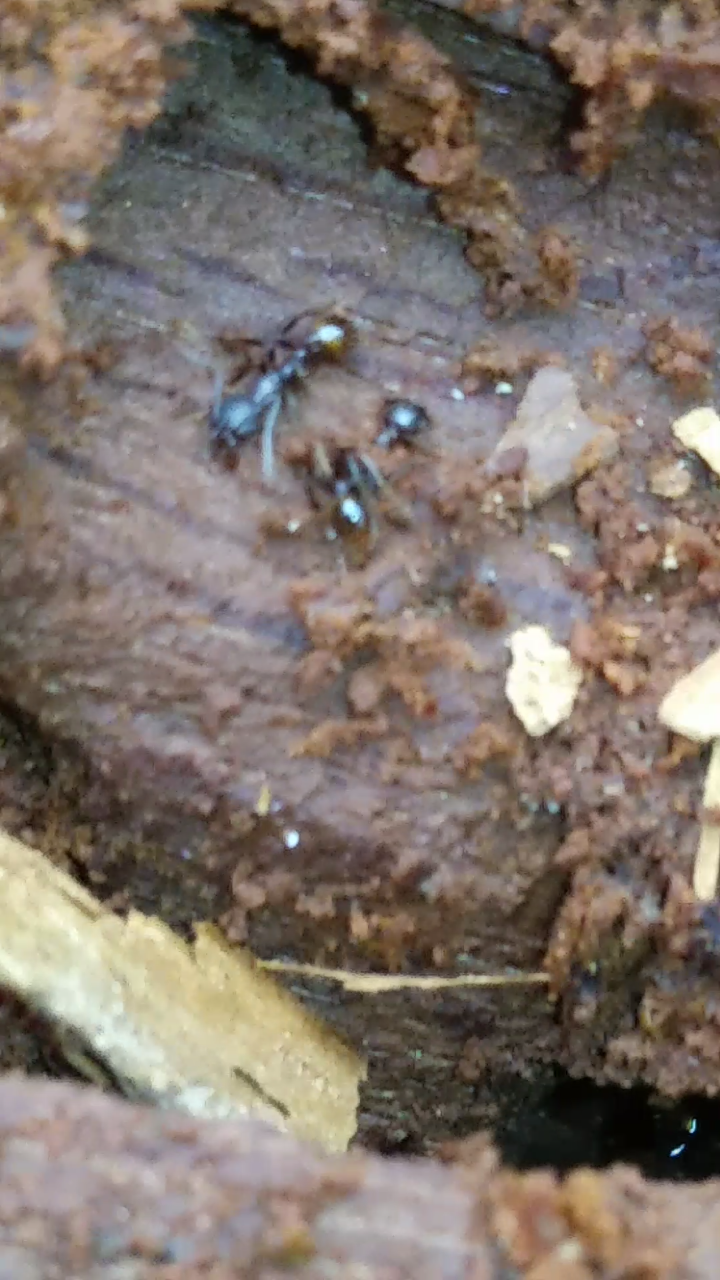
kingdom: Animalia
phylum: Arthropoda
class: Insecta
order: Hymenoptera
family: Formicidae
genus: Aphaenogaster
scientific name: Aphaenogaster fulva
